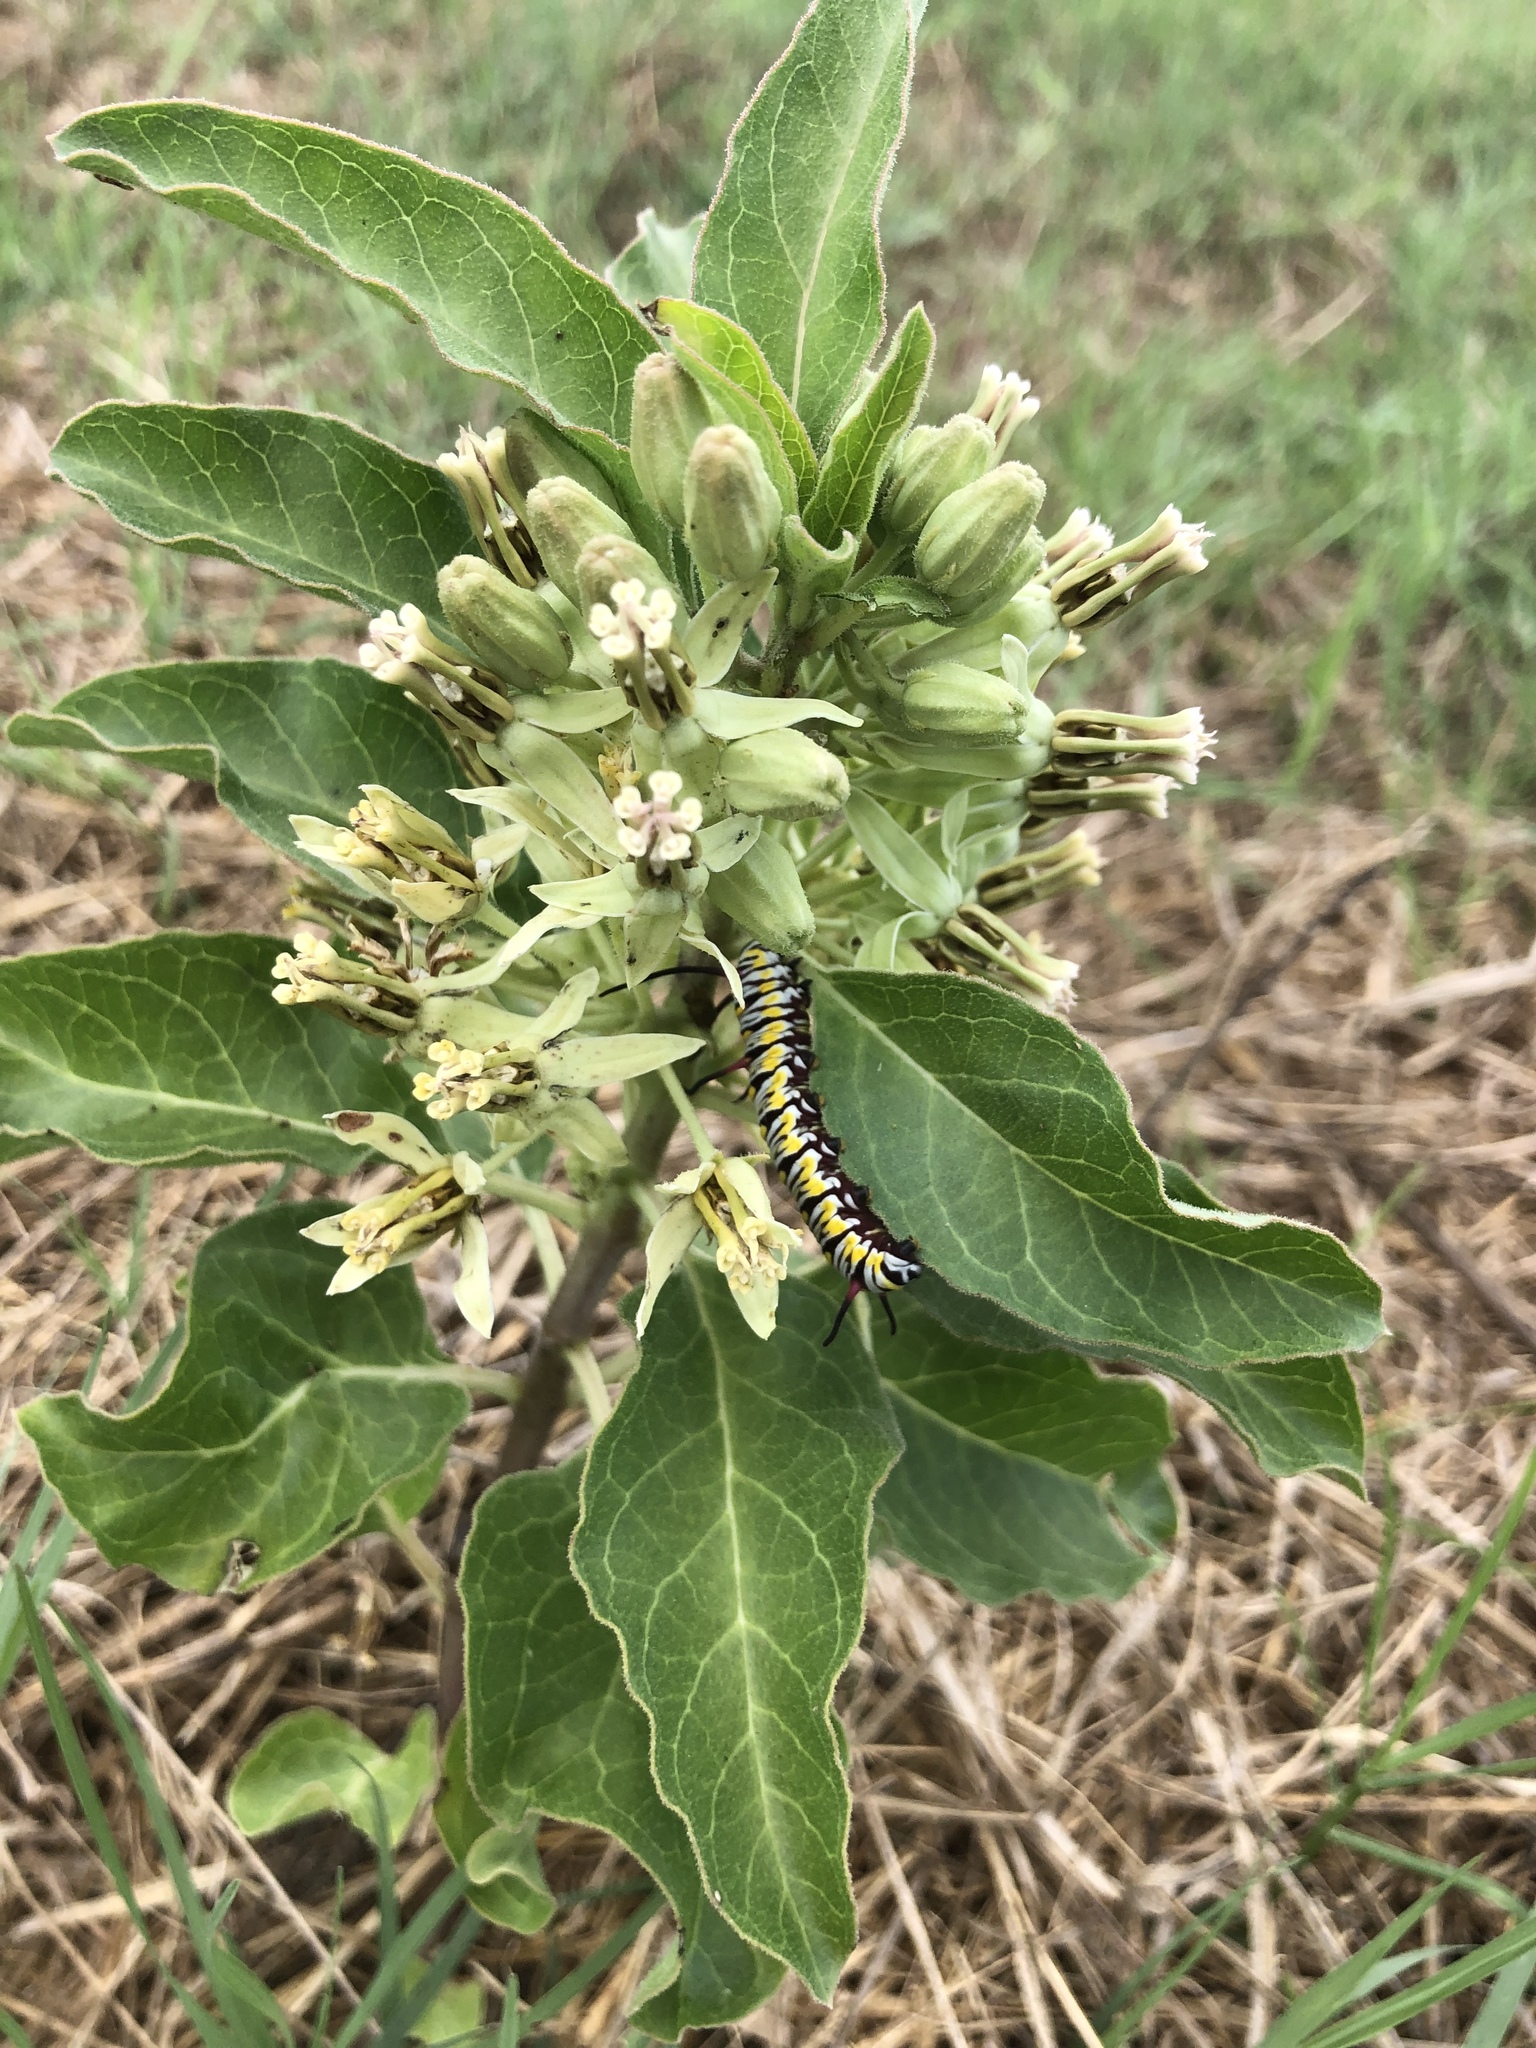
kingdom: Plantae
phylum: Tracheophyta
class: Magnoliopsida
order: Gentianales
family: Apocynaceae
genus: Asclepias
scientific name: Asclepias oenotheroides
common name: Zizotes milkweed
